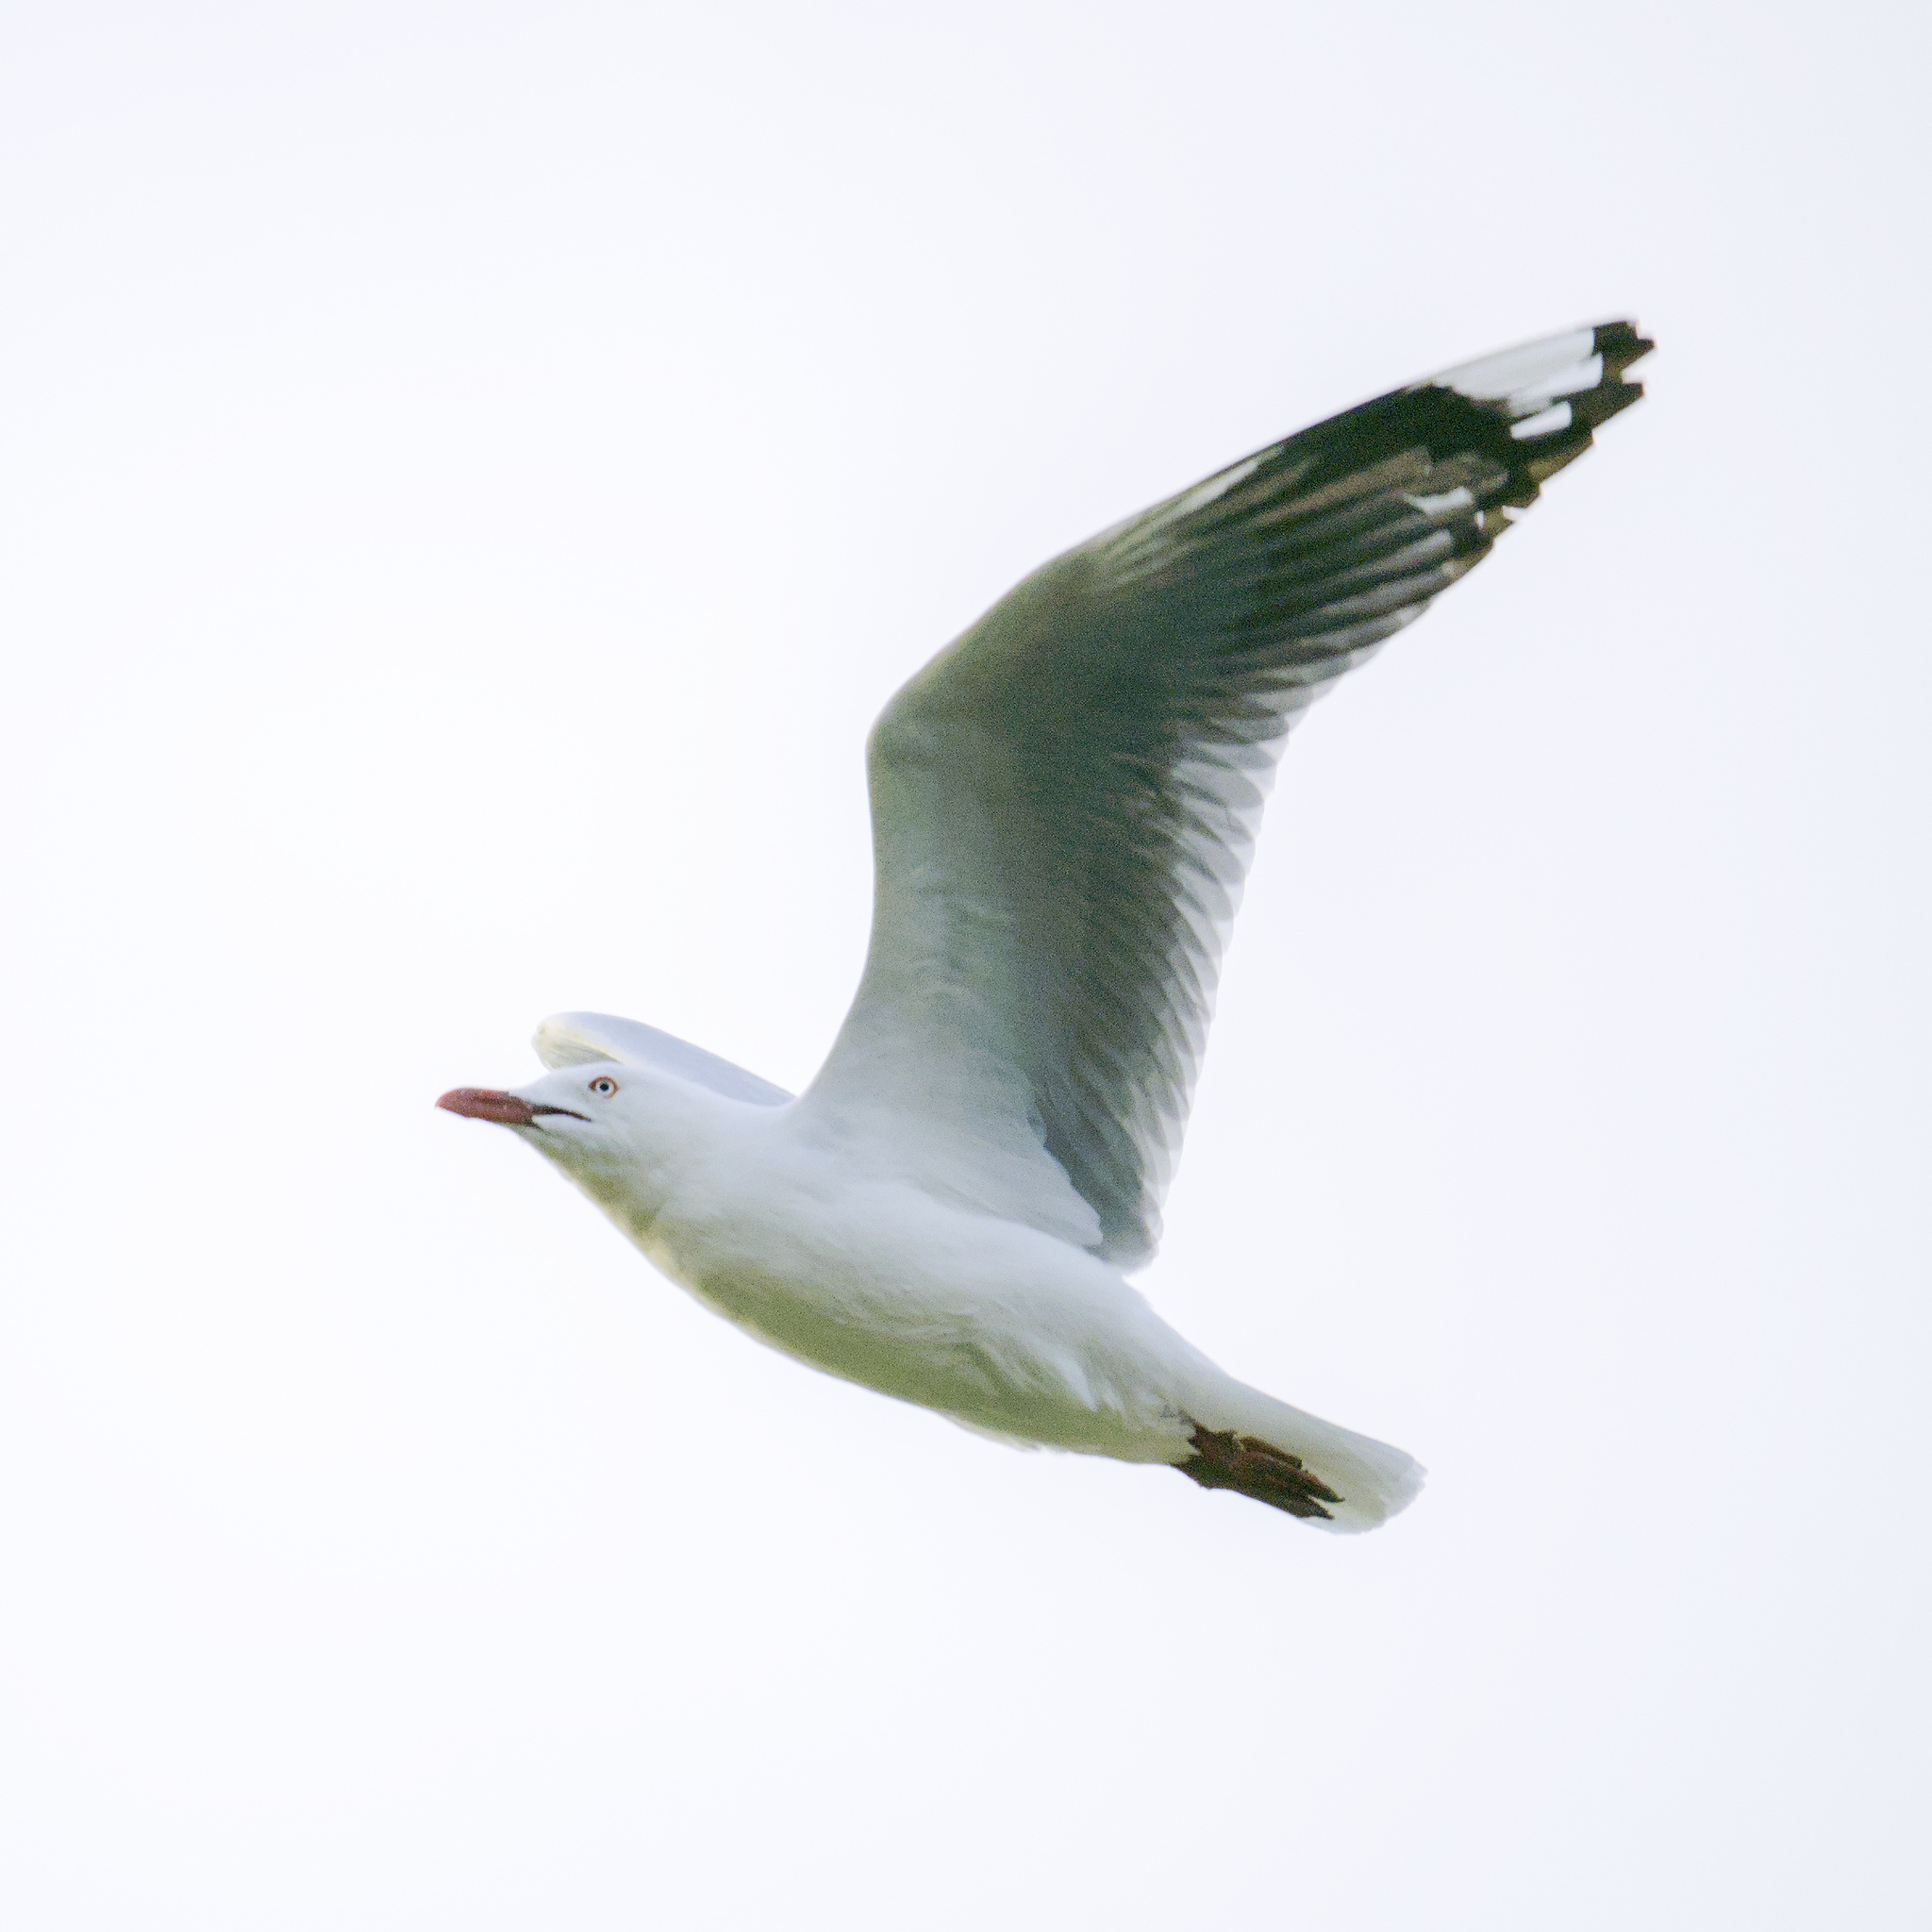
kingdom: Animalia
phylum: Chordata
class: Aves
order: Charadriiformes
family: Laridae
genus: Chroicocephalus
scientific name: Chroicocephalus novaehollandiae
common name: Silver gull
